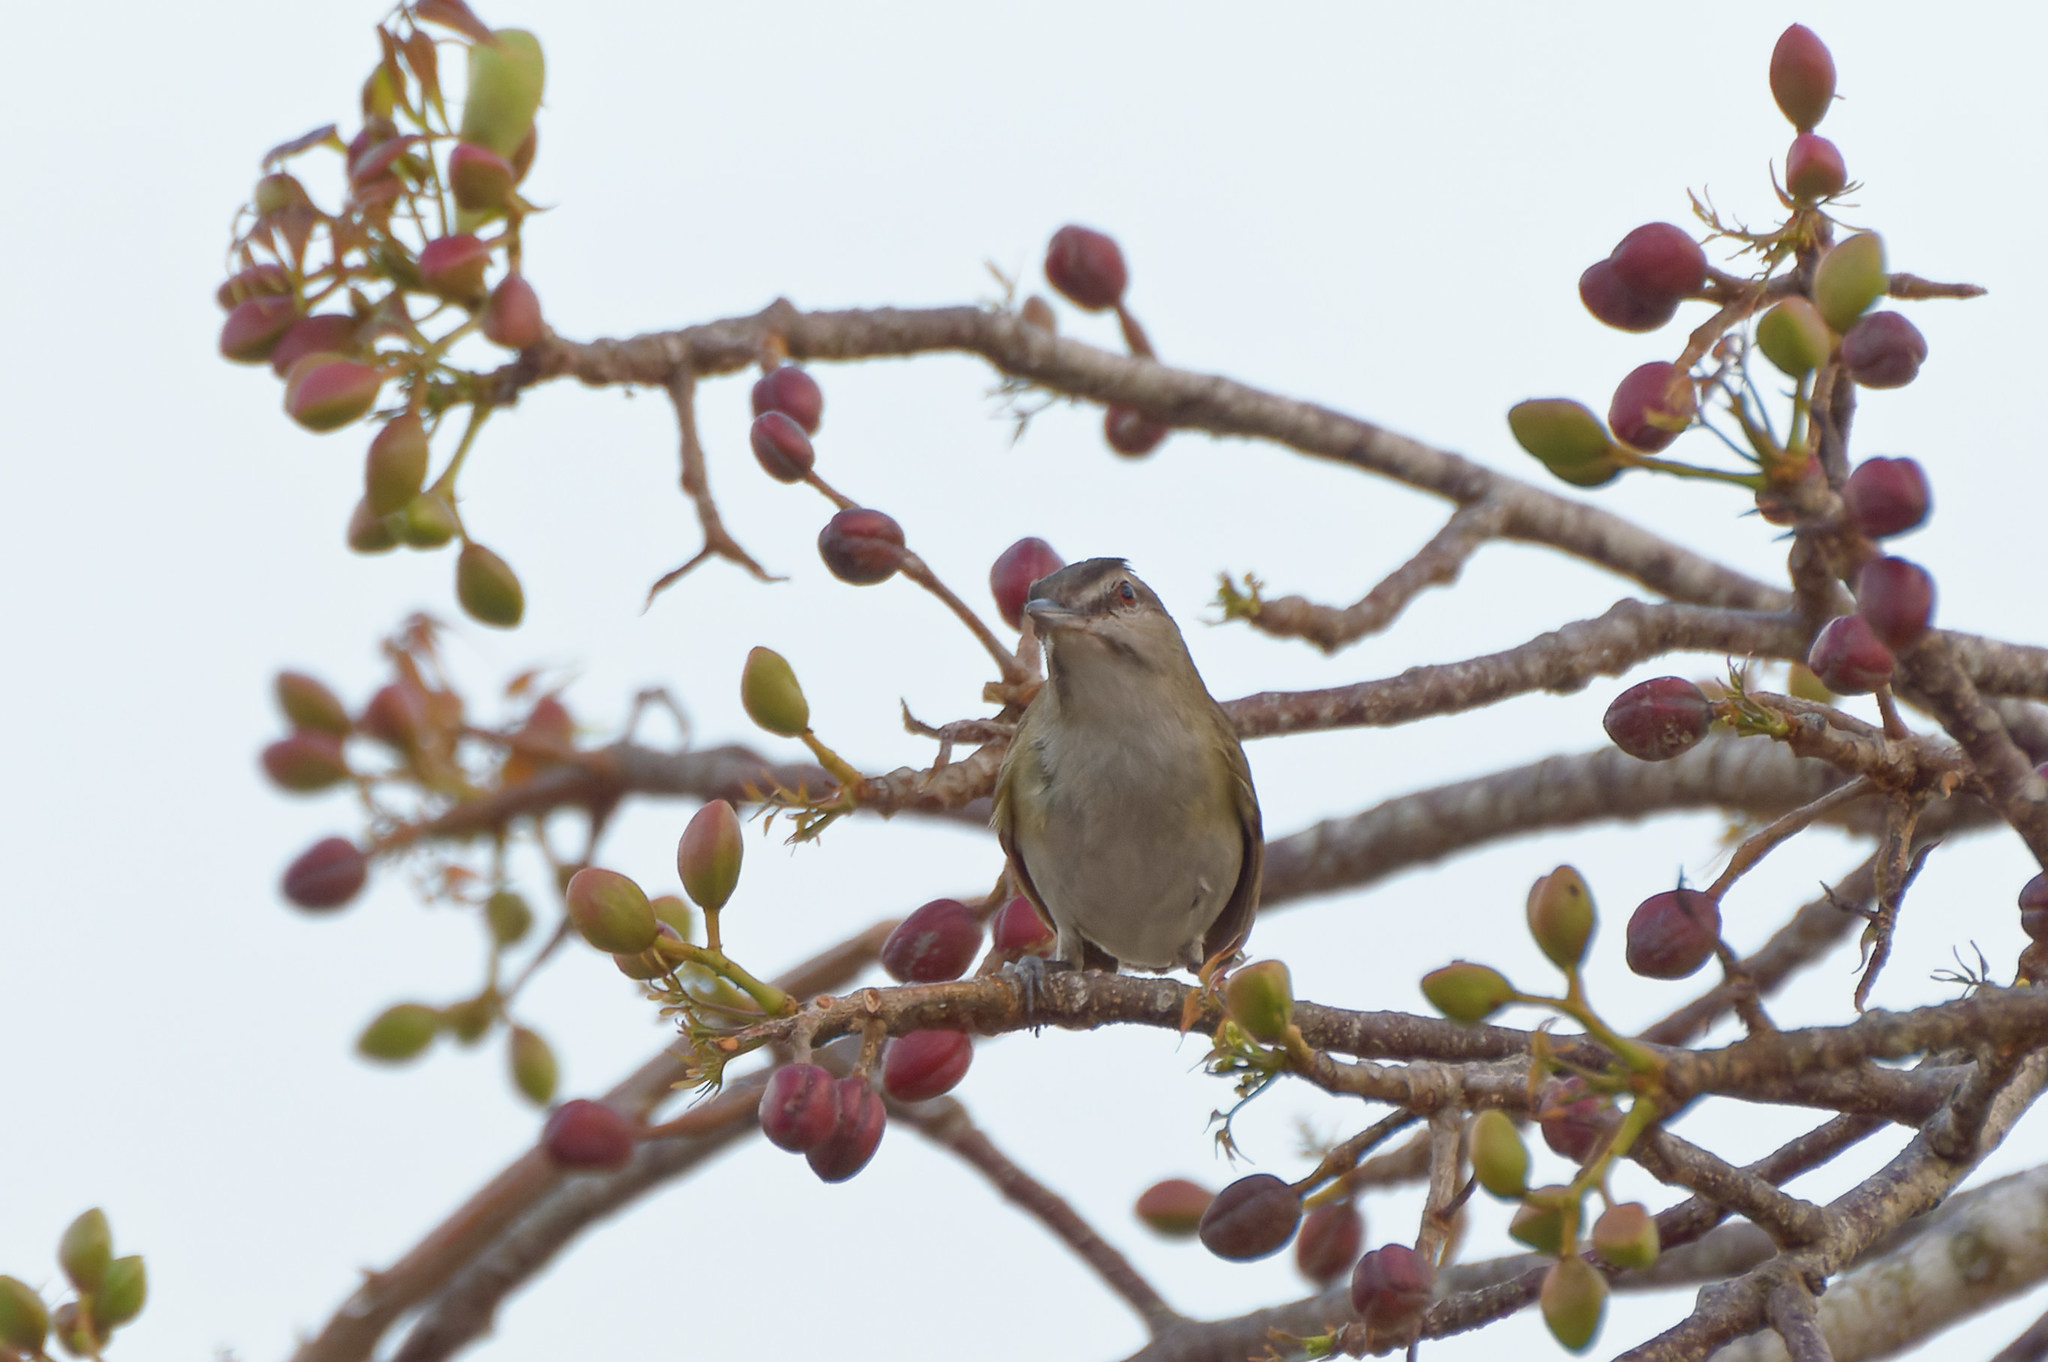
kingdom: Animalia
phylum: Chordata
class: Aves
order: Passeriformes
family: Vireonidae
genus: Vireo
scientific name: Vireo altiloquus
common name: Black-whiskered vireo
